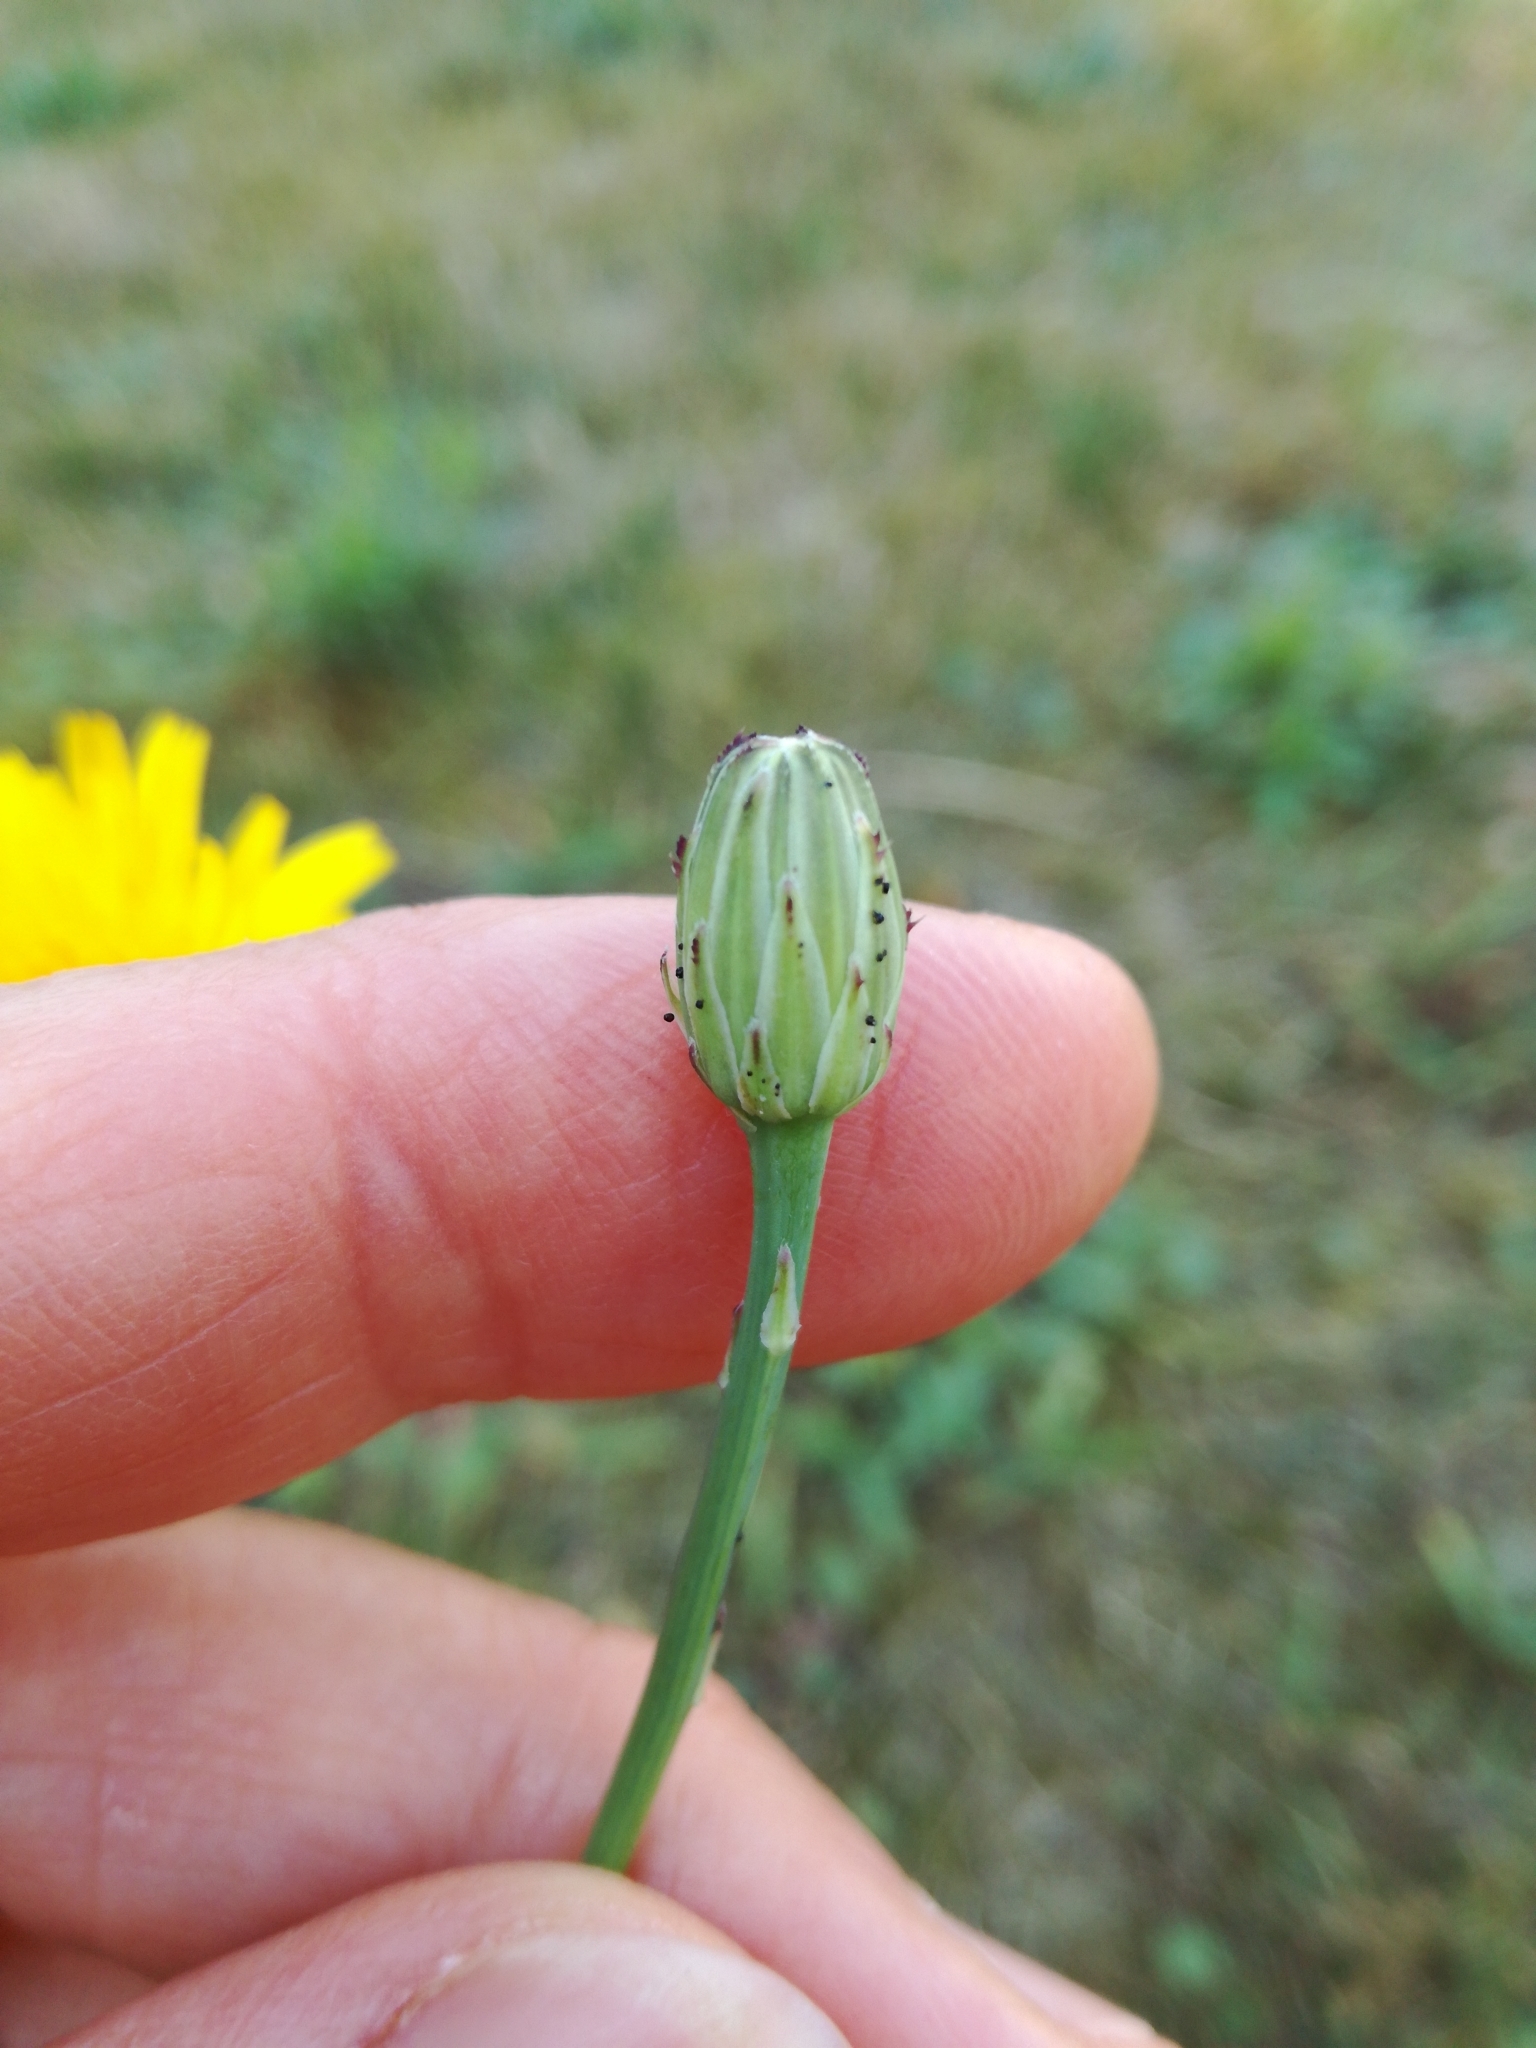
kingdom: Plantae
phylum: Tracheophyta
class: Magnoliopsida
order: Asterales
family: Asteraceae
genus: Hypochaeris
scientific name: Hypochaeris radicata
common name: Flatweed
